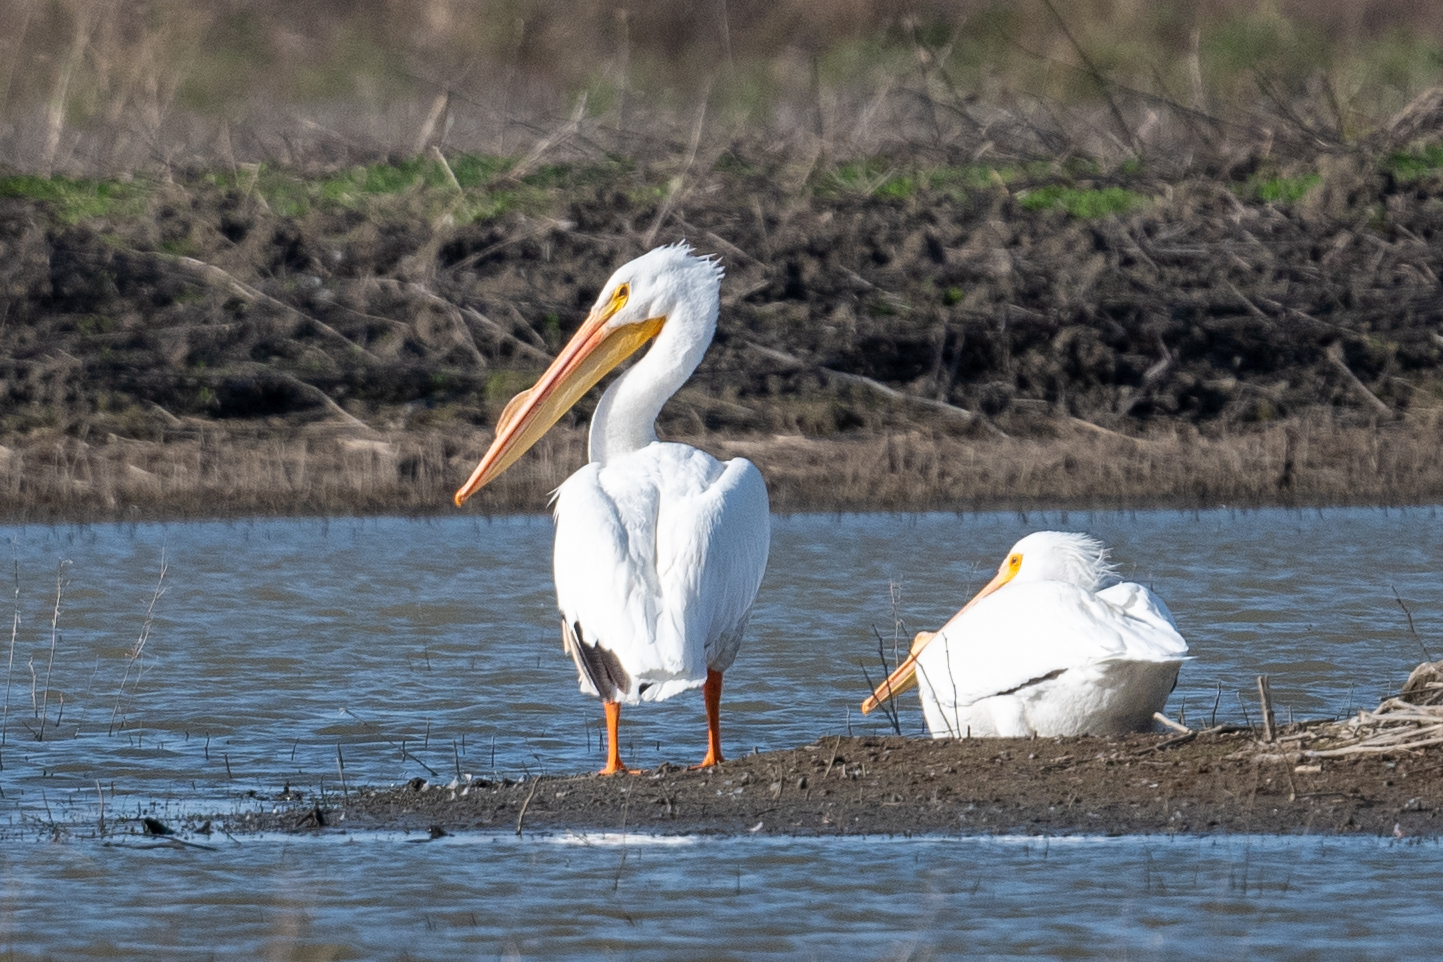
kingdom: Animalia
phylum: Chordata
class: Aves
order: Pelecaniformes
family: Pelecanidae
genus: Pelecanus
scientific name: Pelecanus erythrorhynchos
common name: American white pelican
